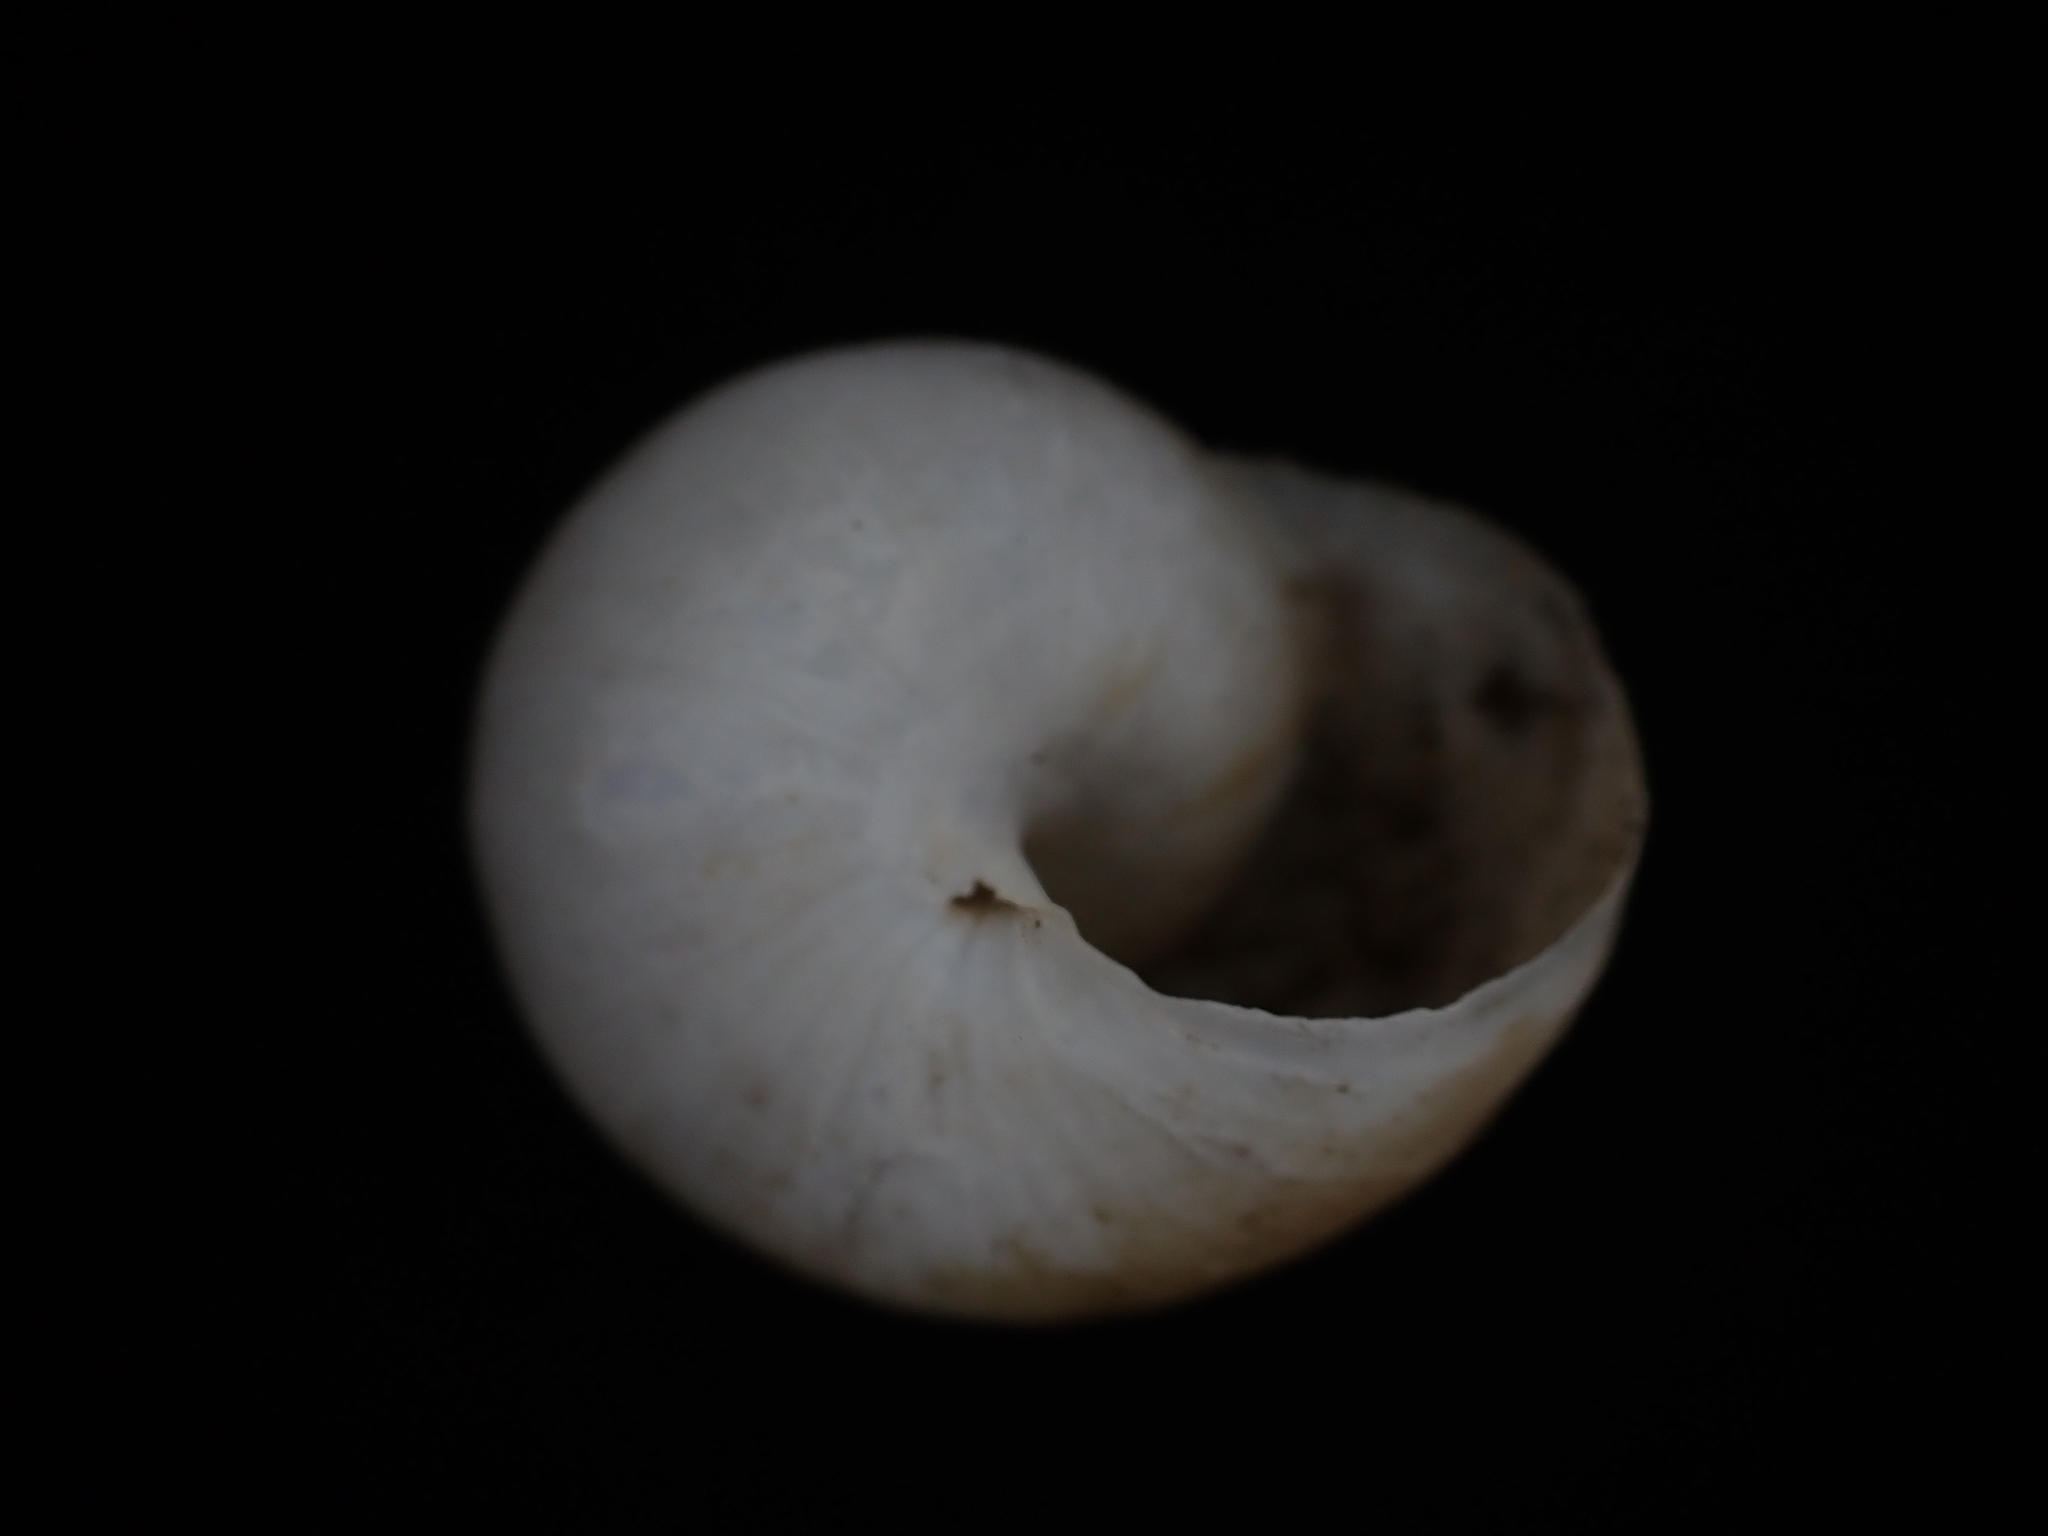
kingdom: Animalia
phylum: Mollusca
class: Gastropoda
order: Stylommatophora
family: Helicidae
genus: Eobania
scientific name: Eobania vermiculata
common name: Chocolateband snail
